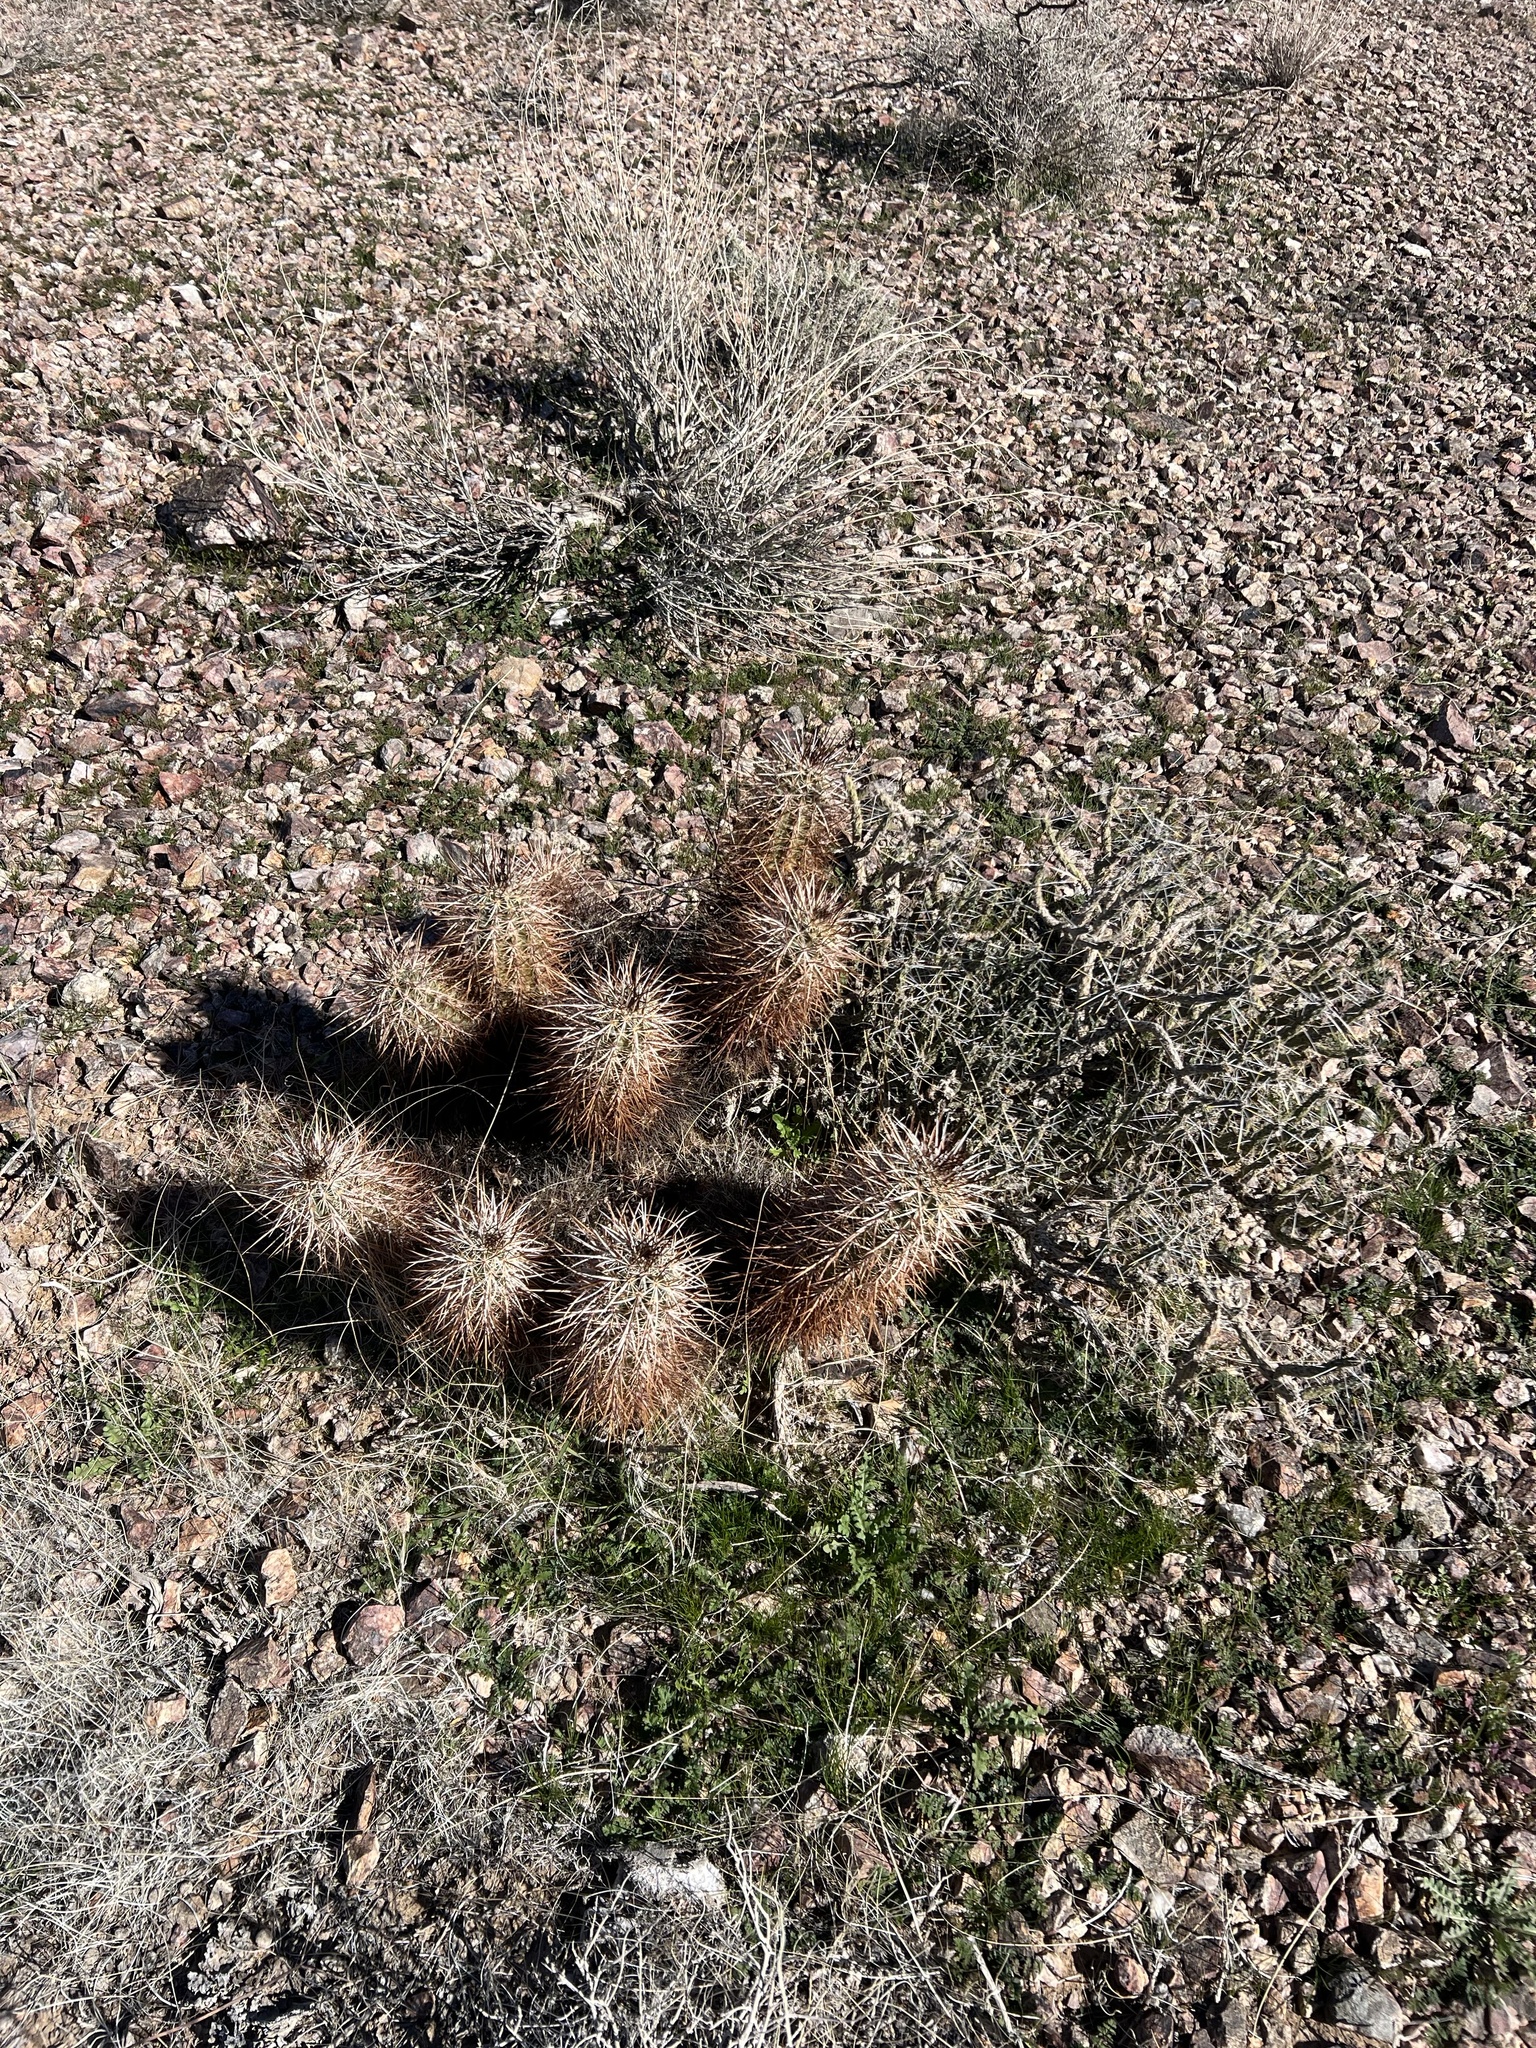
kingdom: Plantae
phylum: Tracheophyta
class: Magnoliopsida
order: Caryophyllales
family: Cactaceae
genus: Echinocereus
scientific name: Echinocereus engelmannii
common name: Engelmann's hedgehog cactus
